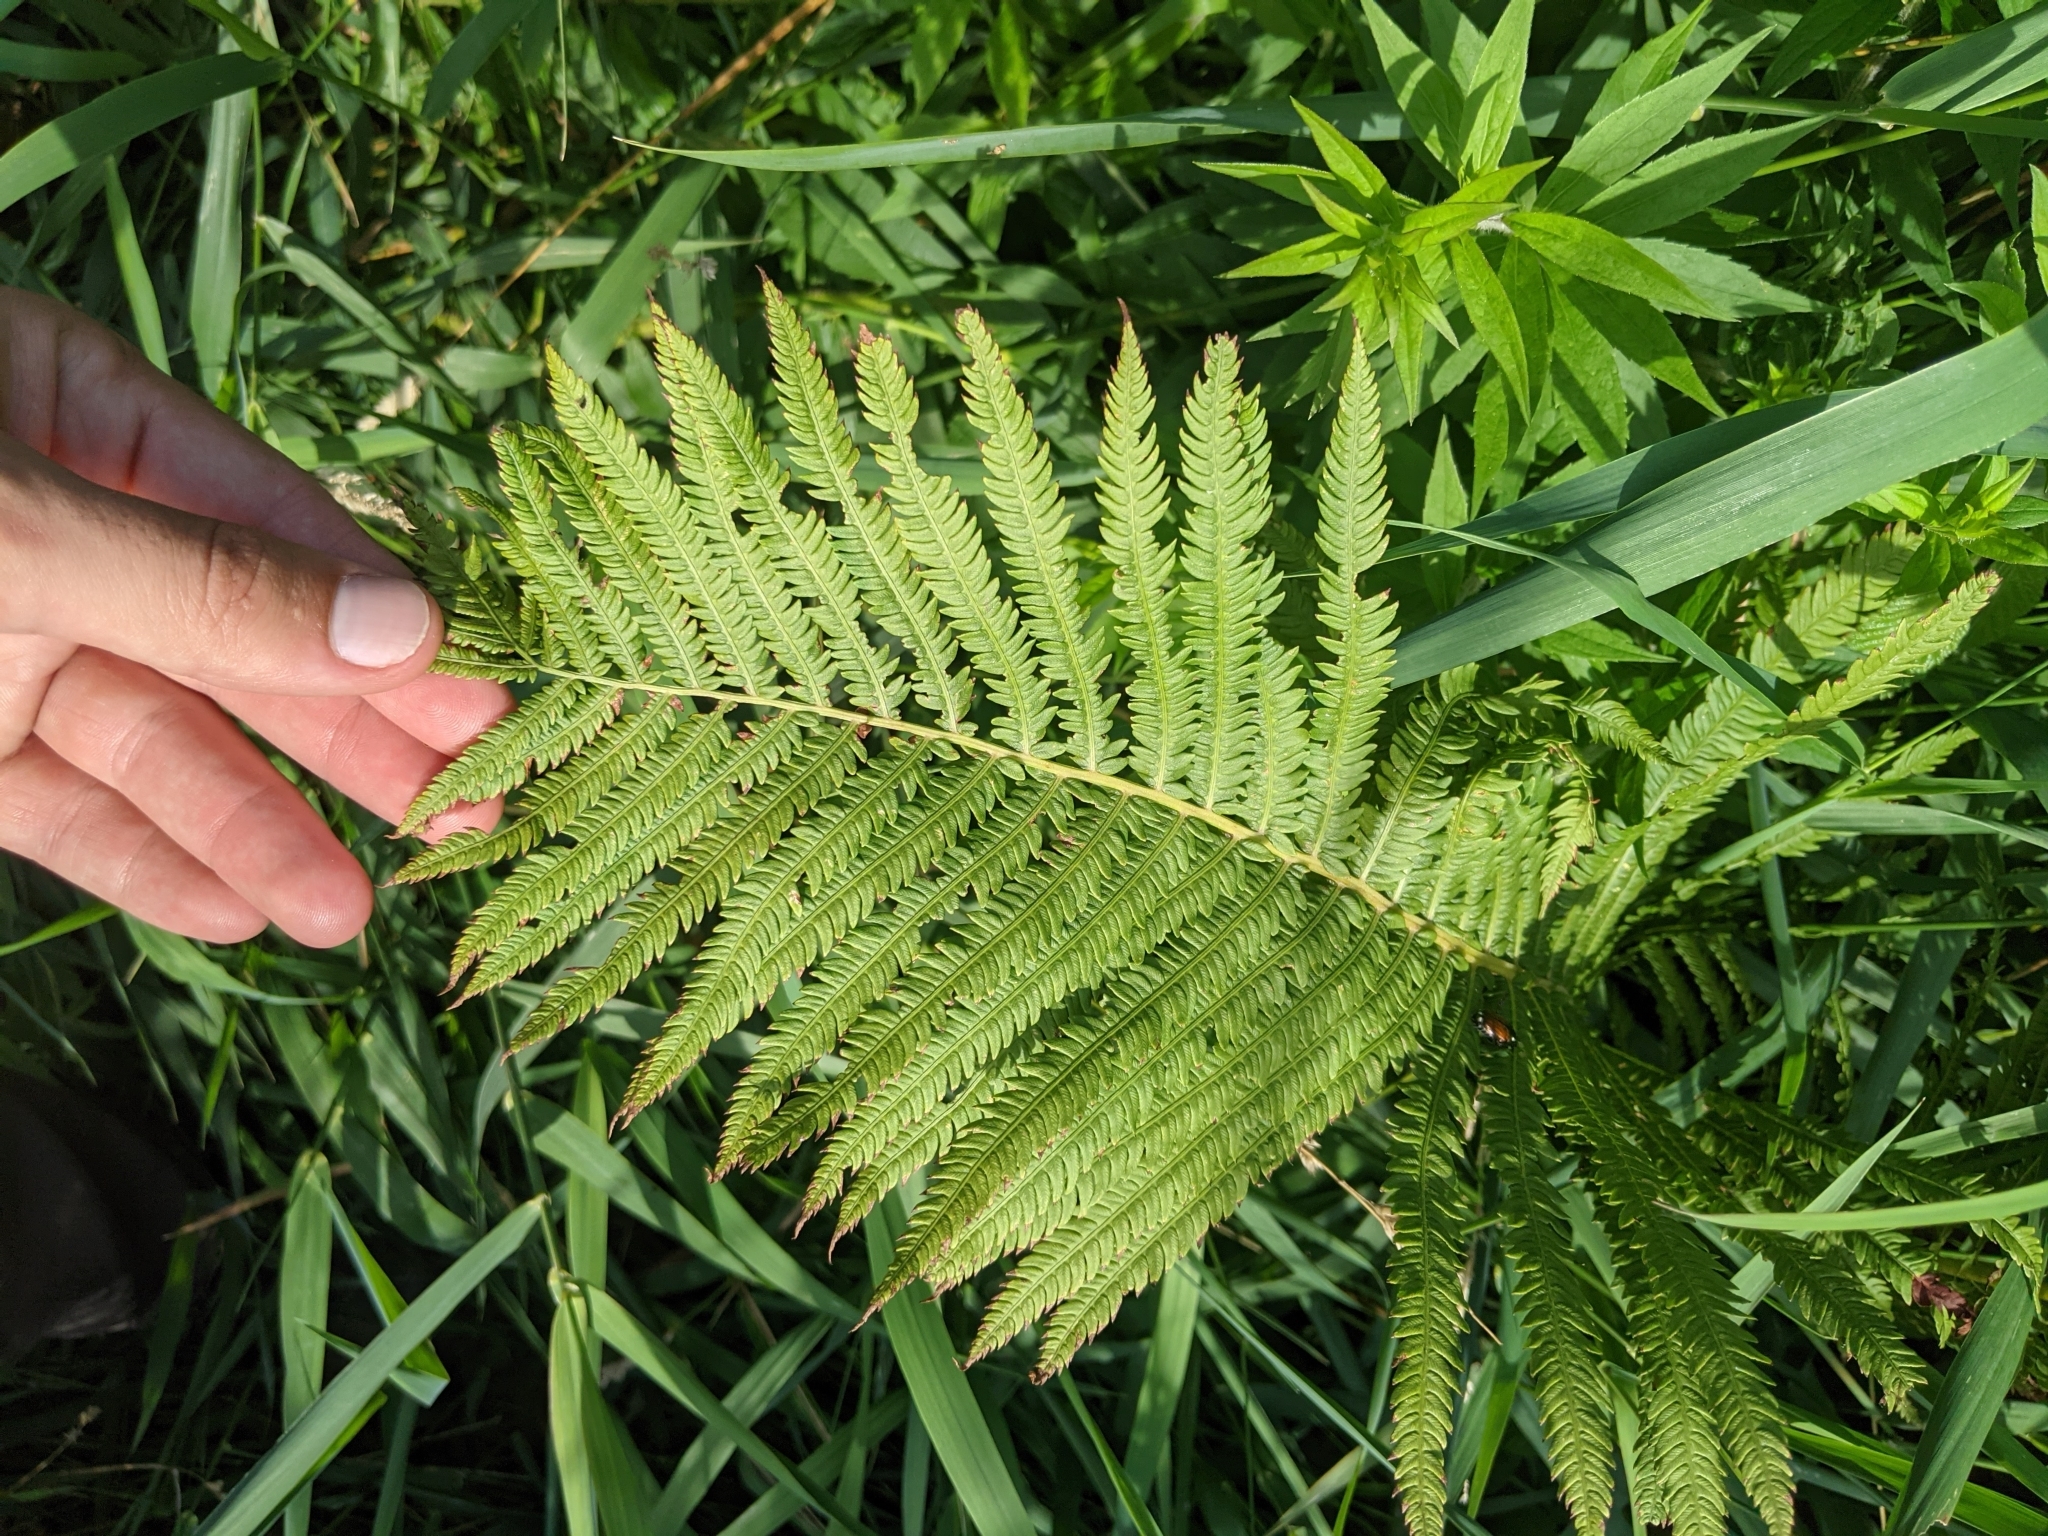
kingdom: Plantae
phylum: Tracheophyta
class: Polypodiopsida
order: Polypodiales
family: Onocleaceae
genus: Matteuccia
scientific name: Matteuccia struthiopteris
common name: Ostrich fern
